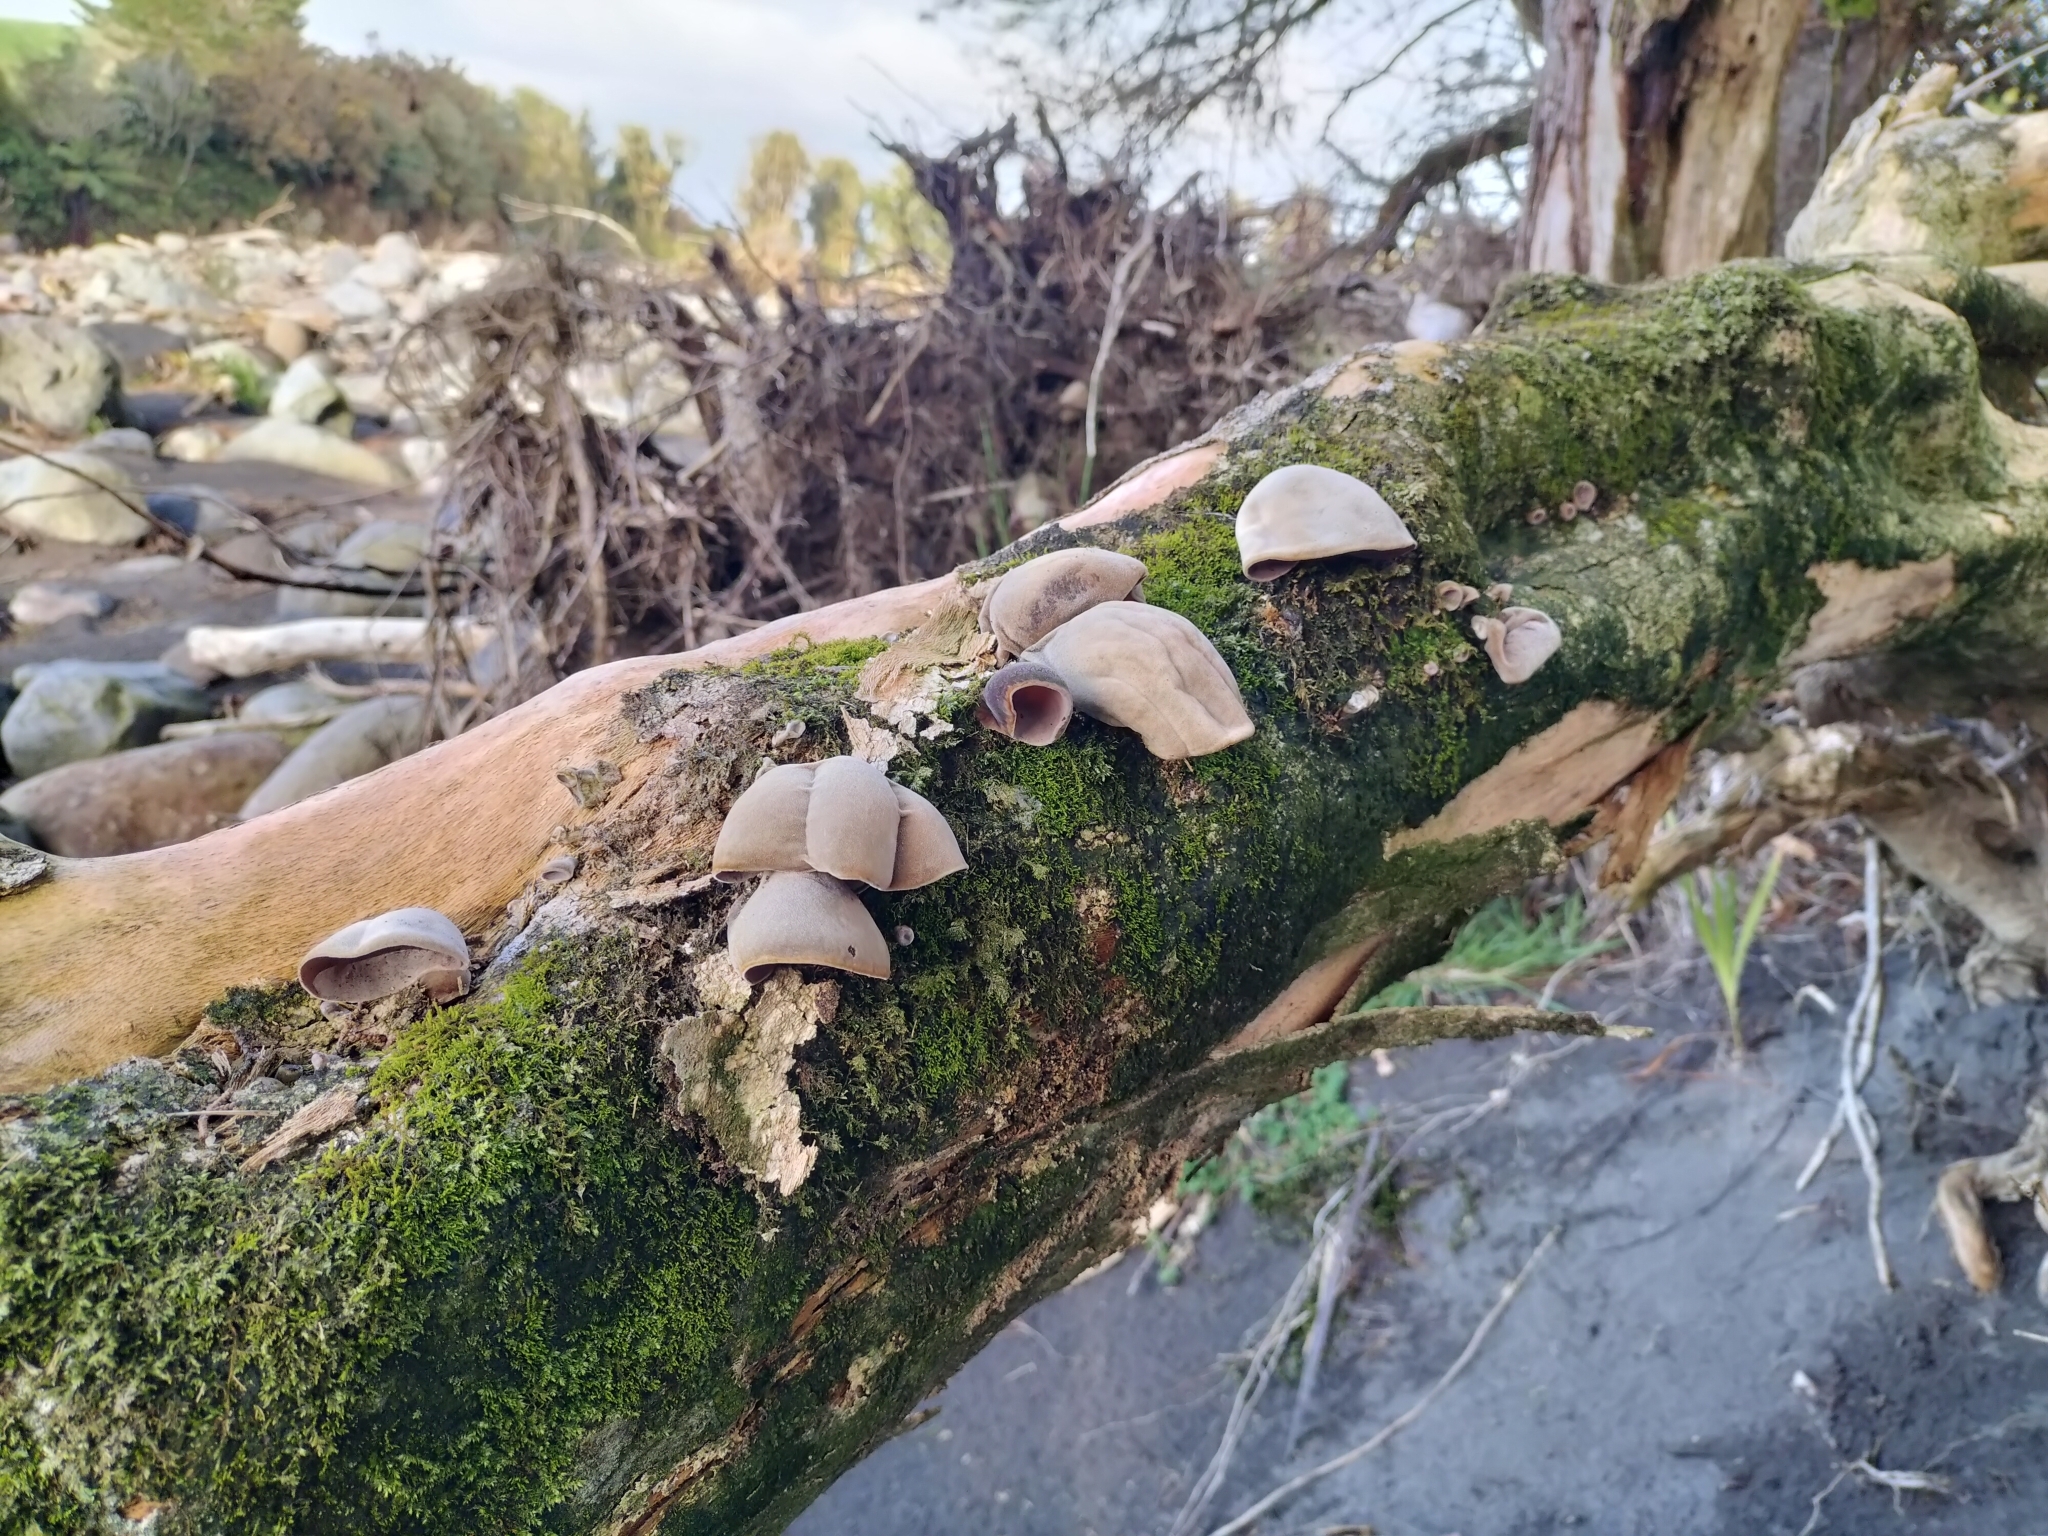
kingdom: Fungi
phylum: Basidiomycota
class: Agaricomycetes
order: Auriculariales
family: Auriculariaceae
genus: Auricularia
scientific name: Auricularia cornea
